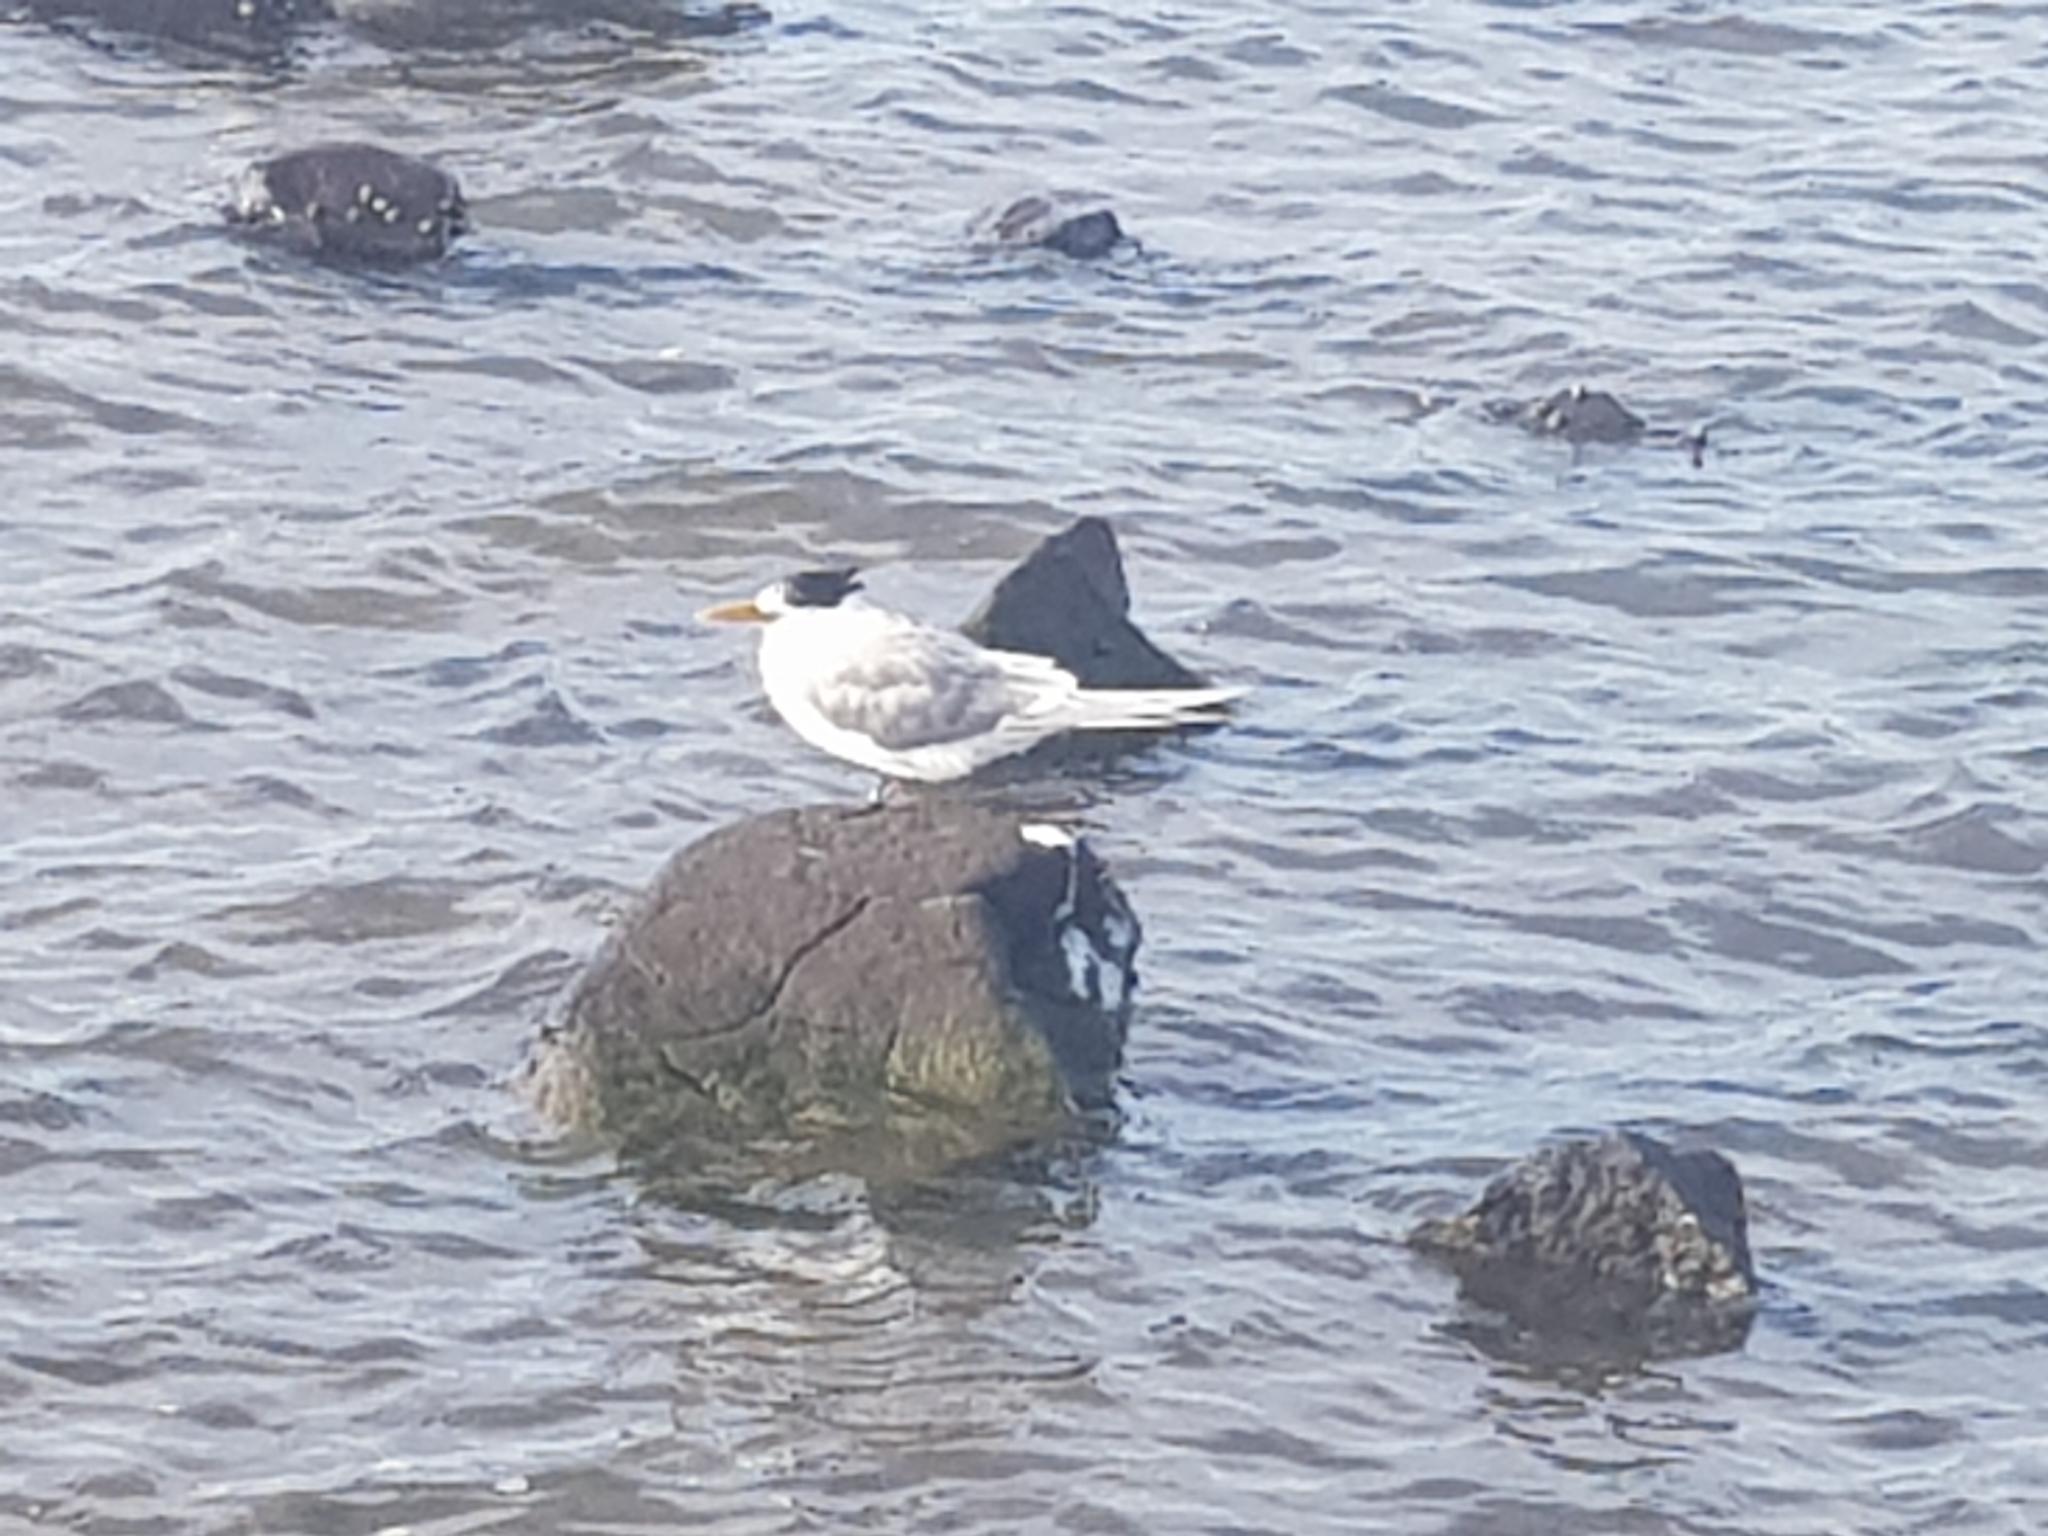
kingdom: Animalia
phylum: Chordata
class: Aves
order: Charadriiformes
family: Laridae
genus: Thalasseus
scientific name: Thalasseus bergii
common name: Greater crested tern
